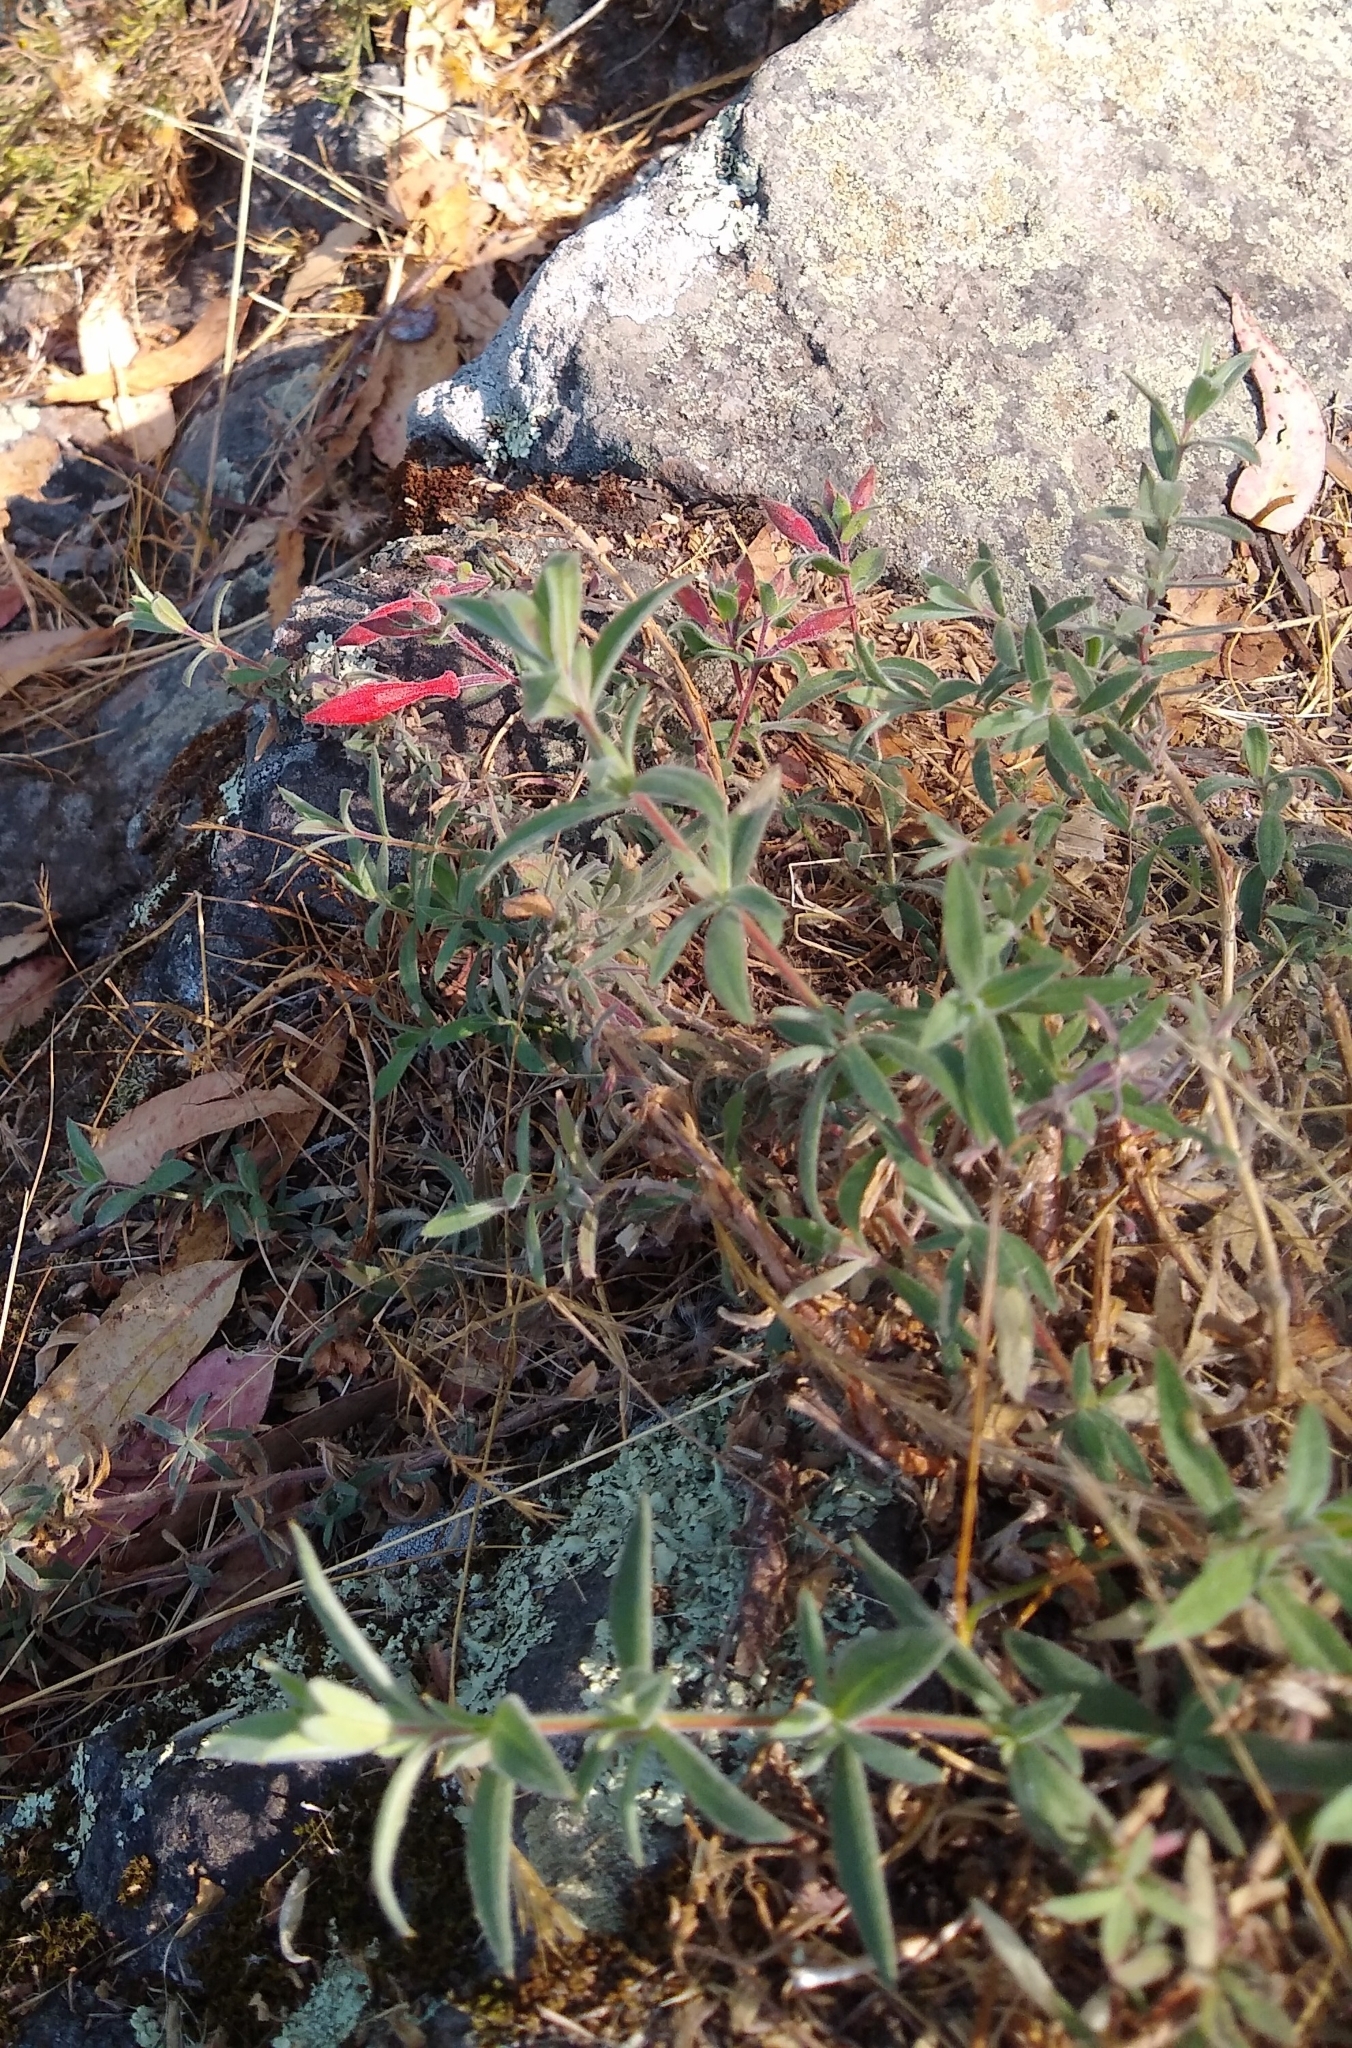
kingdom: Plantae
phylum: Tracheophyta
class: Magnoliopsida
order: Myrtales
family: Onagraceae
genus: Epilobium
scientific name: Epilobium canum
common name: California-fuchsia
